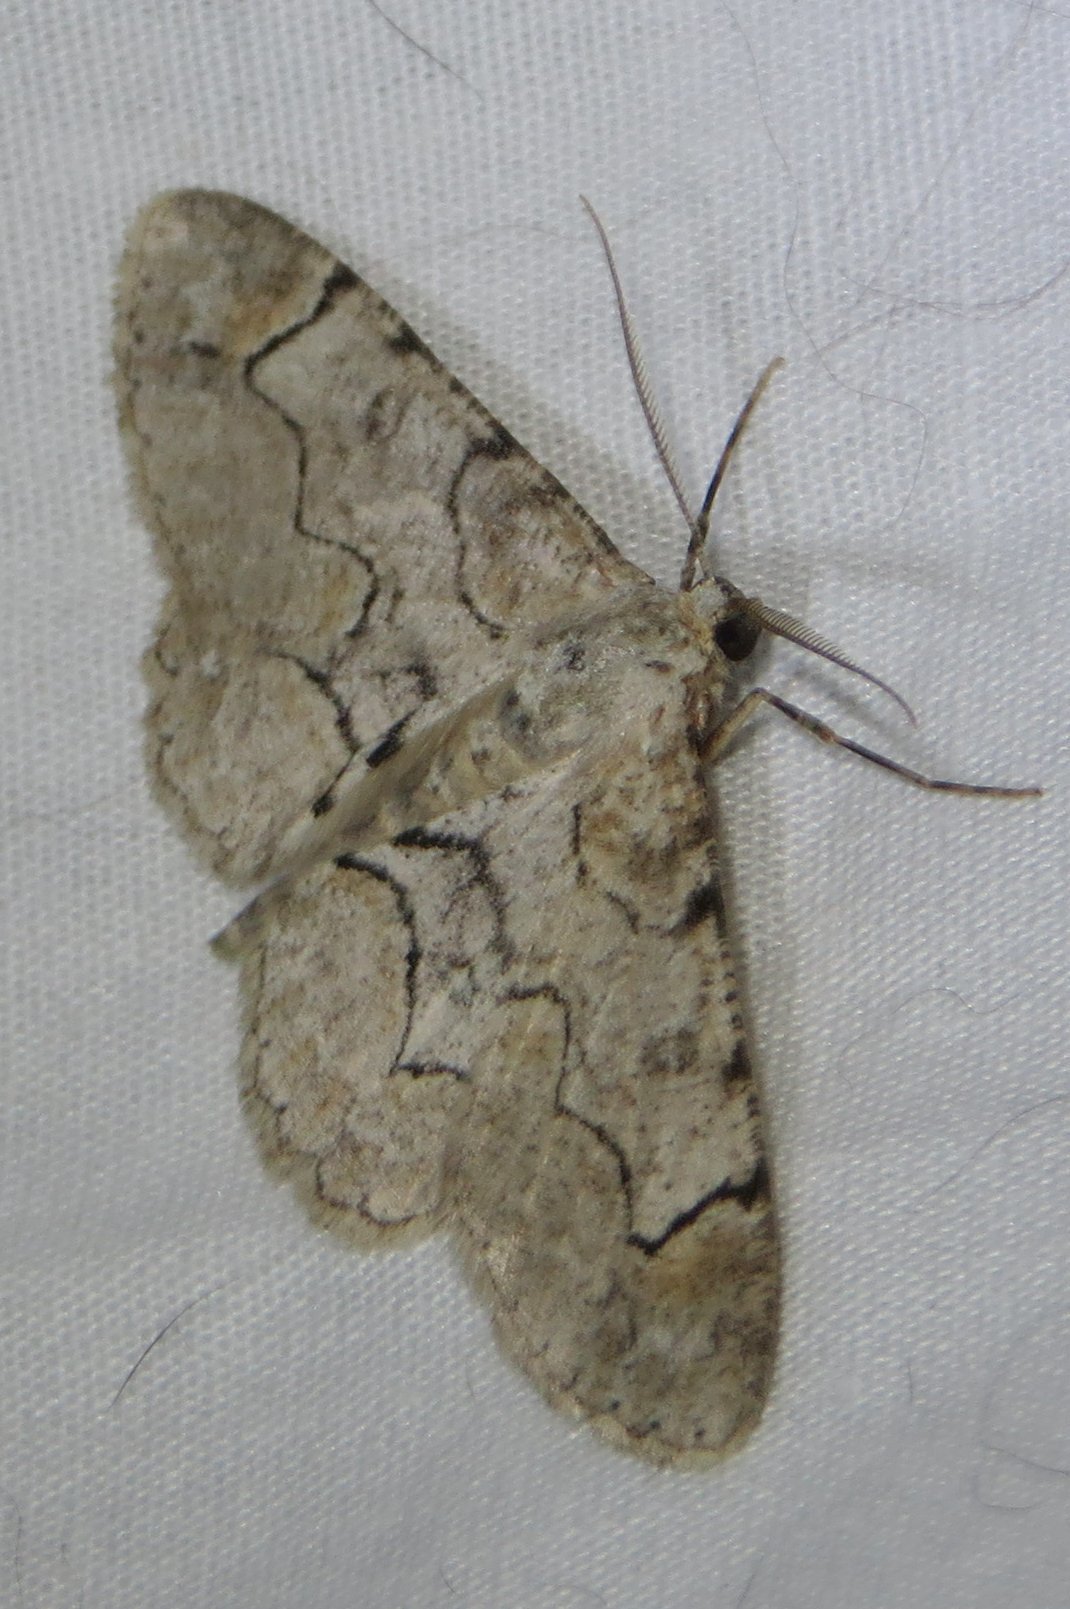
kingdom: Animalia
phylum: Arthropoda
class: Insecta
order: Lepidoptera
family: Geometridae
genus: Iridopsis
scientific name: Iridopsis larvaria
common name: Bent-line gray
